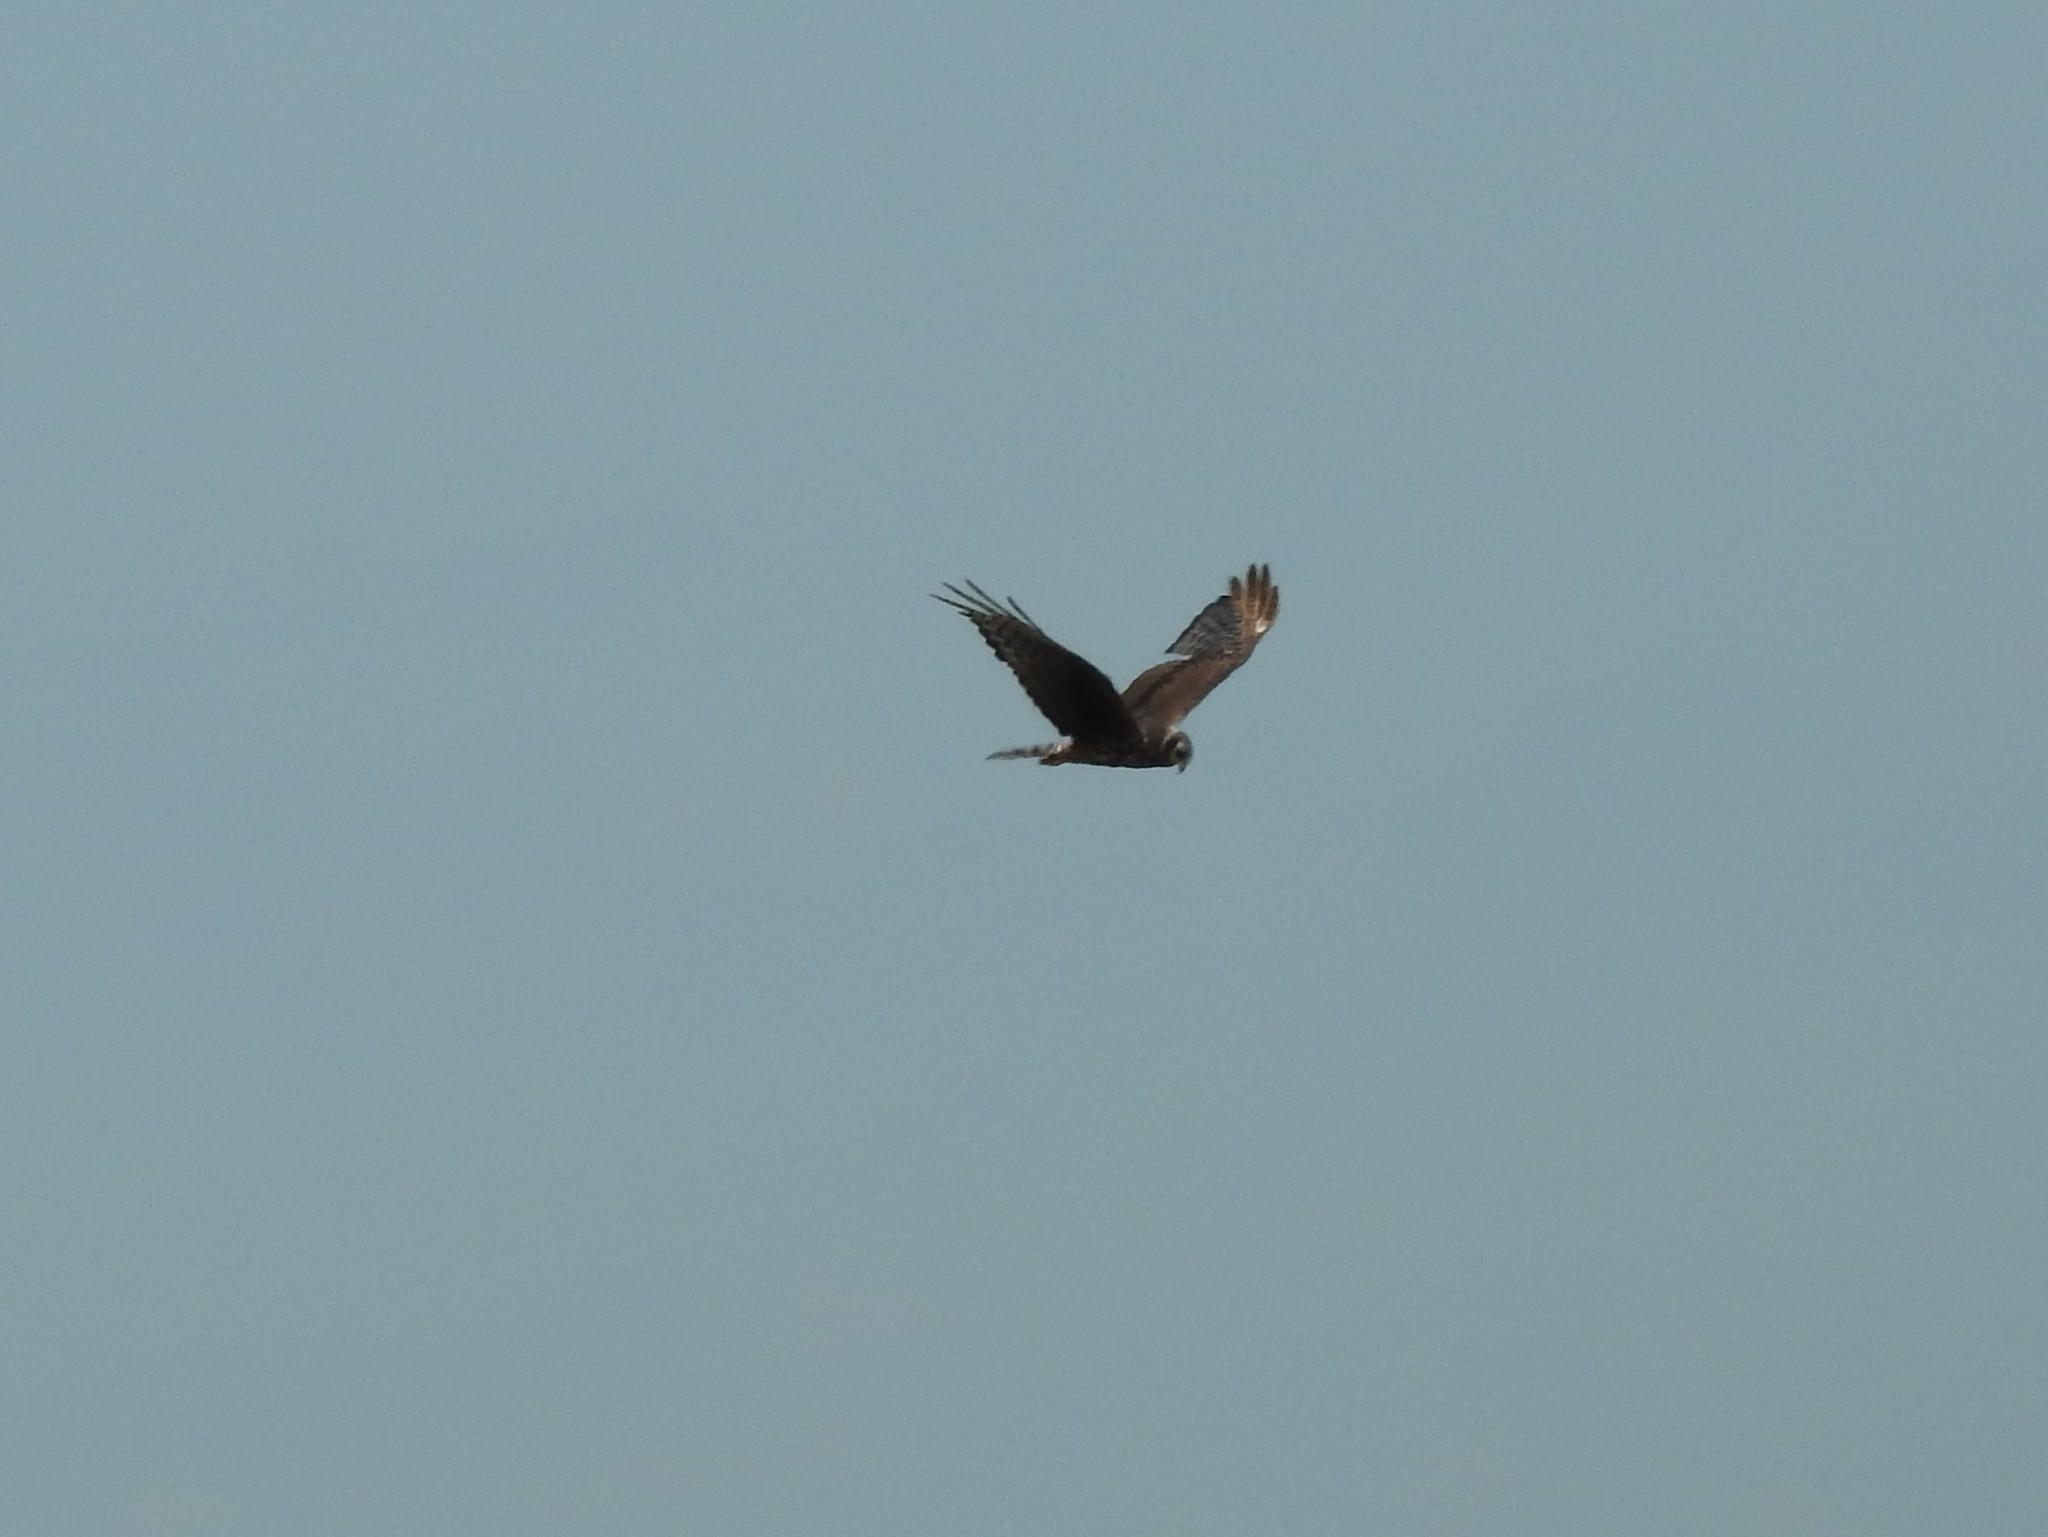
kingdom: Animalia
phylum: Chordata
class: Aves
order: Accipitriformes
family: Accipitridae
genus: Circus
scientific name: Circus buffoni
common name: Long-winged harrier
